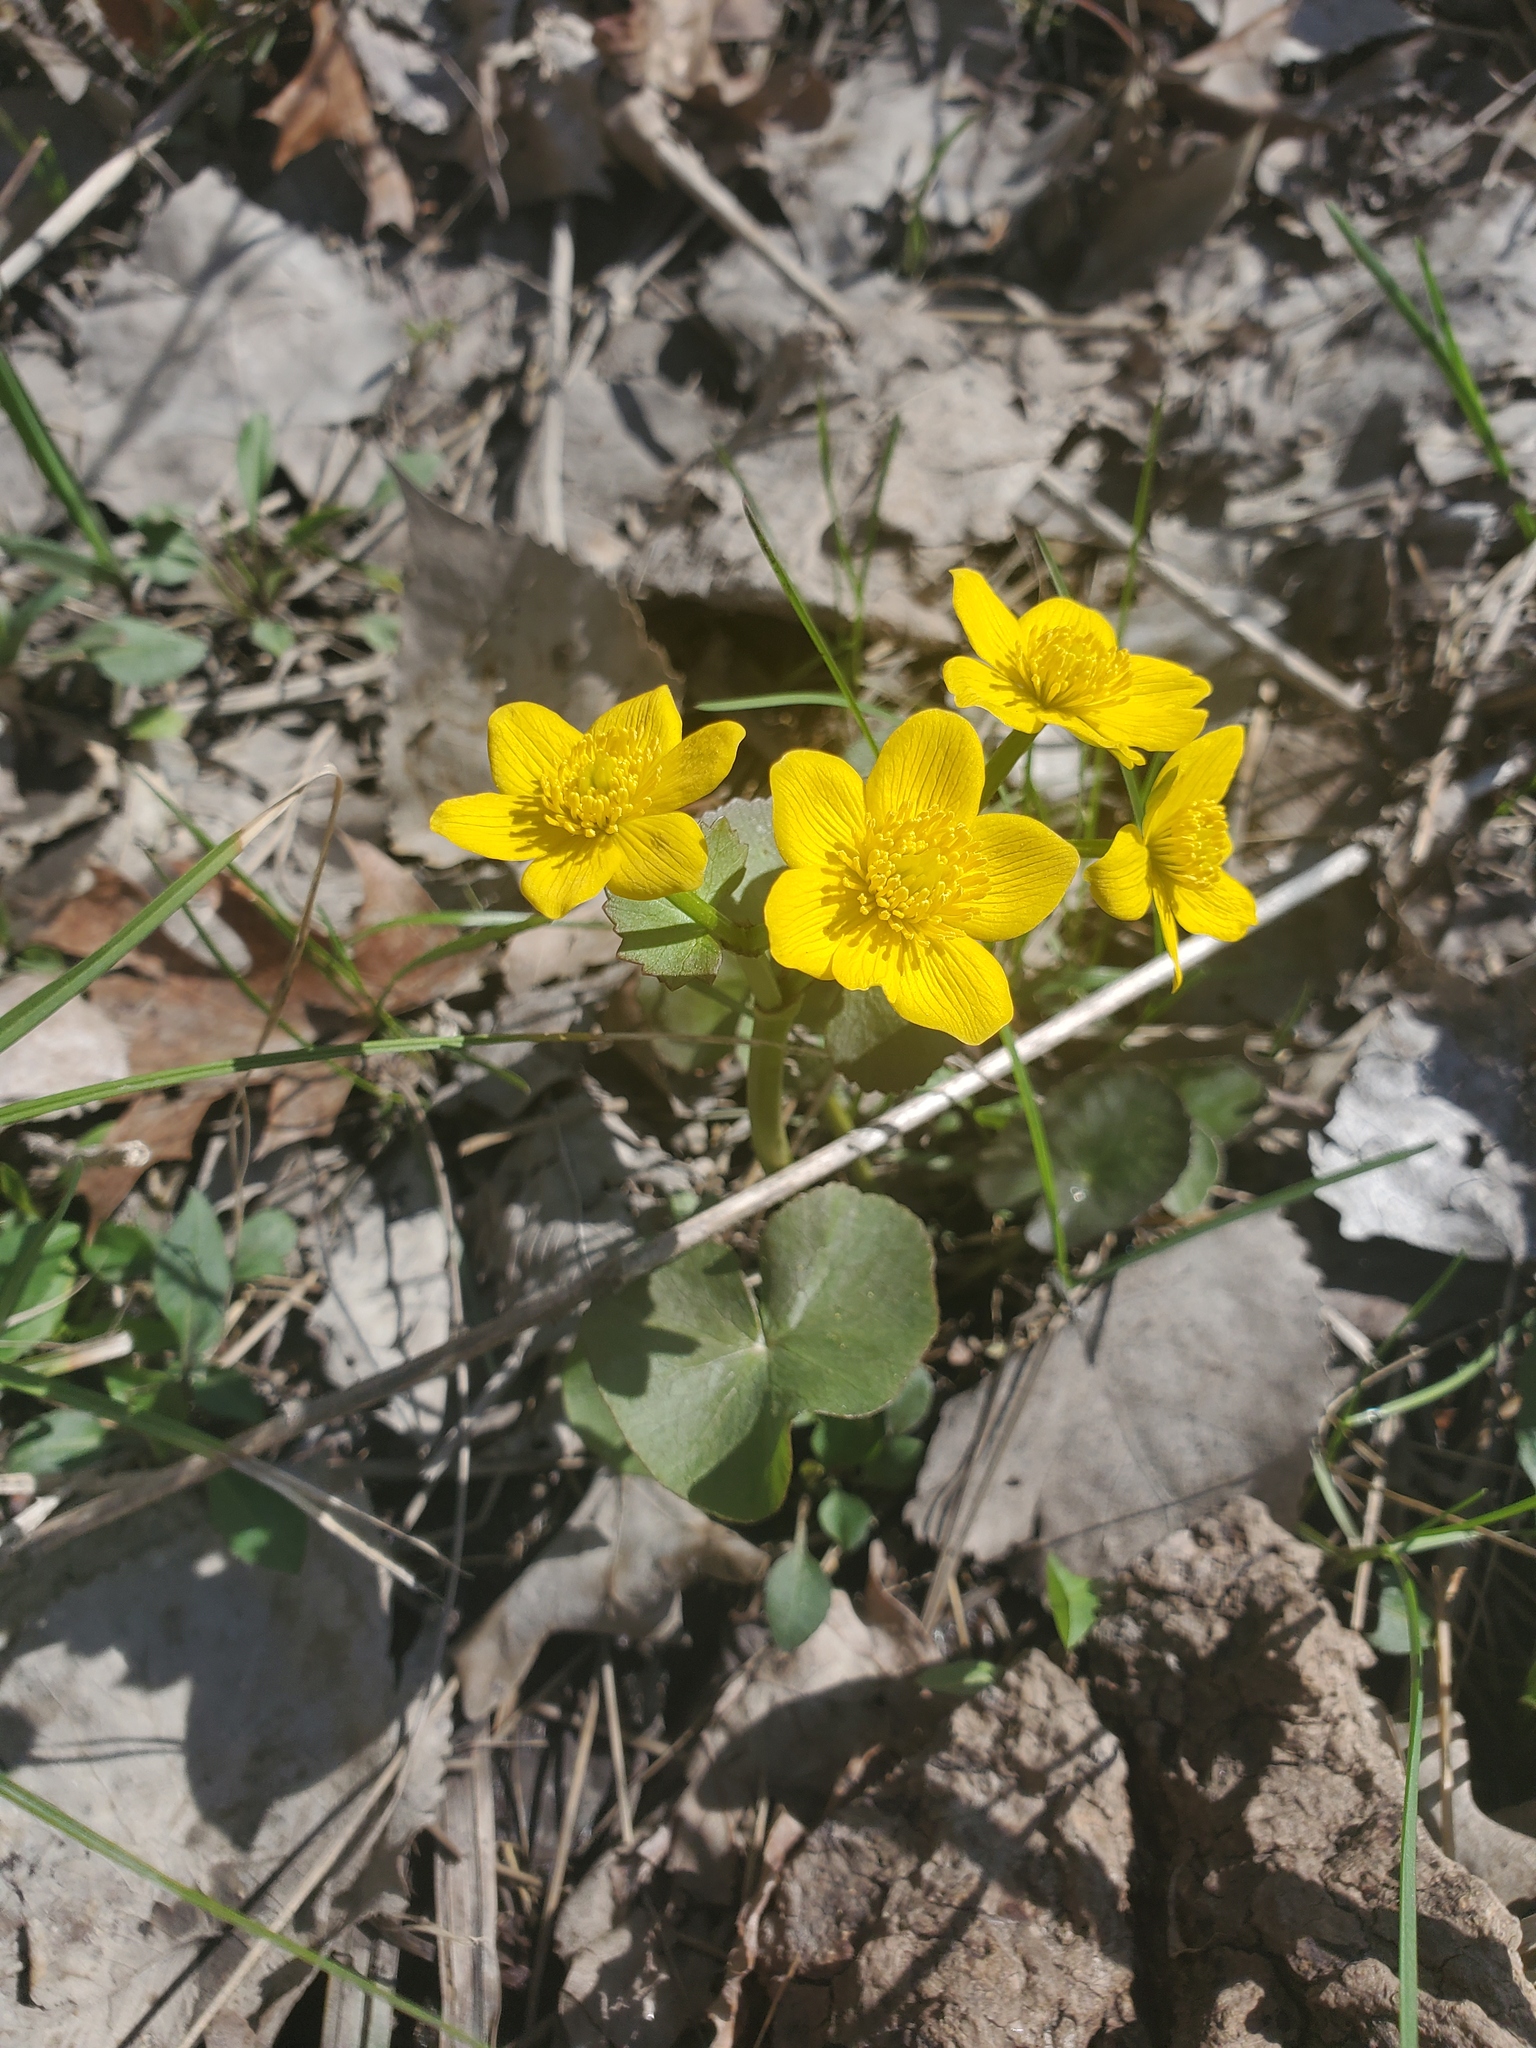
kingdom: Plantae
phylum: Tracheophyta
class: Magnoliopsida
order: Ranunculales
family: Ranunculaceae
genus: Caltha
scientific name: Caltha palustris
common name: Marsh marigold
